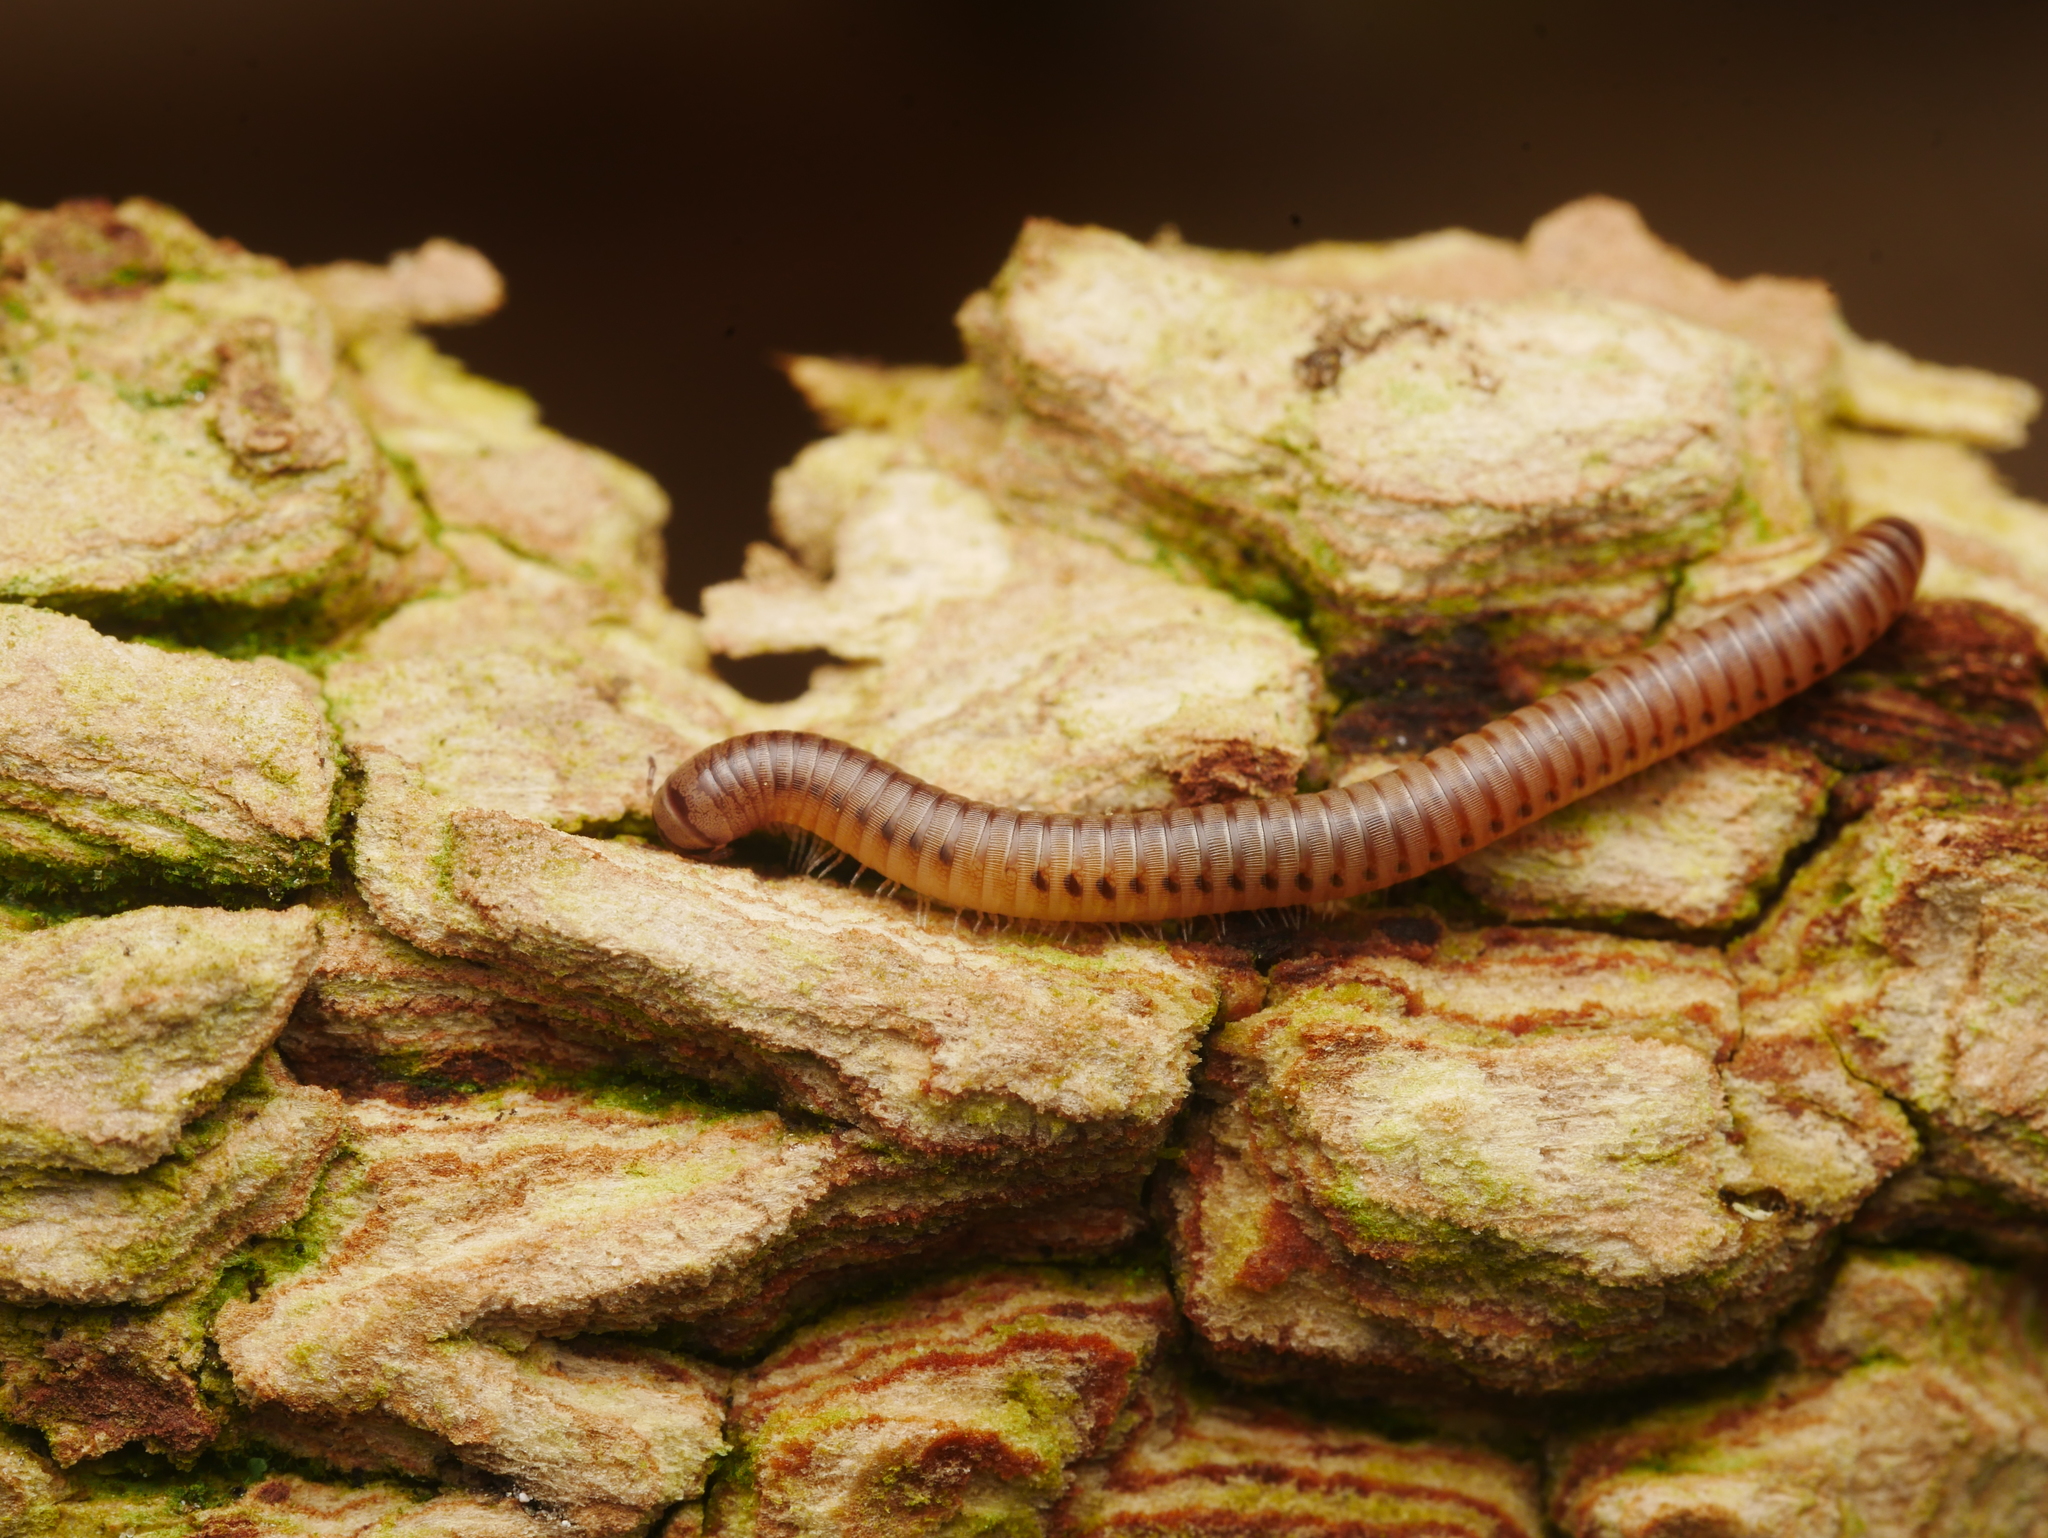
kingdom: Animalia
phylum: Arthropoda
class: Diplopoda
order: Julida
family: Julidae
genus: Cylindroiulus
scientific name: Cylindroiulus punctatus
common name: Blunt-tailed millipede
